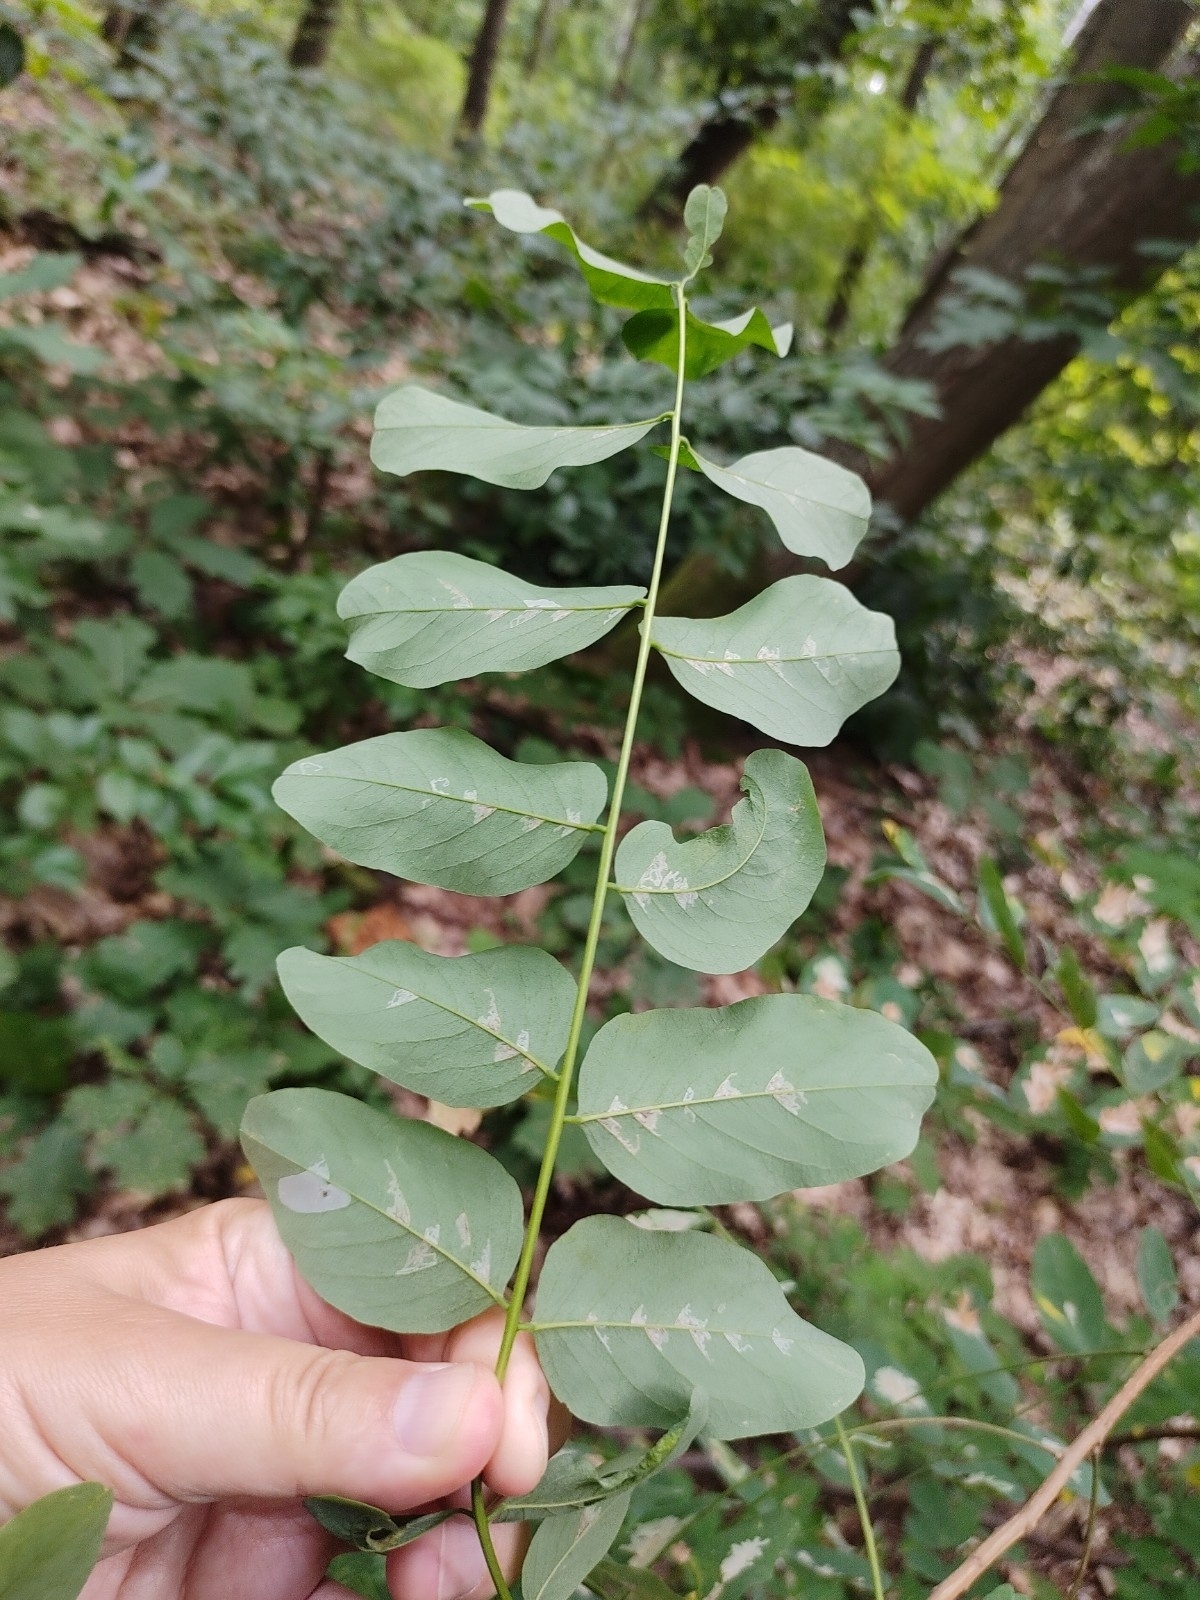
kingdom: Plantae
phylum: Tracheophyta
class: Magnoliopsida
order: Fabales
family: Fabaceae
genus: Robinia
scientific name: Robinia pseudoacacia
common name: Black locust
